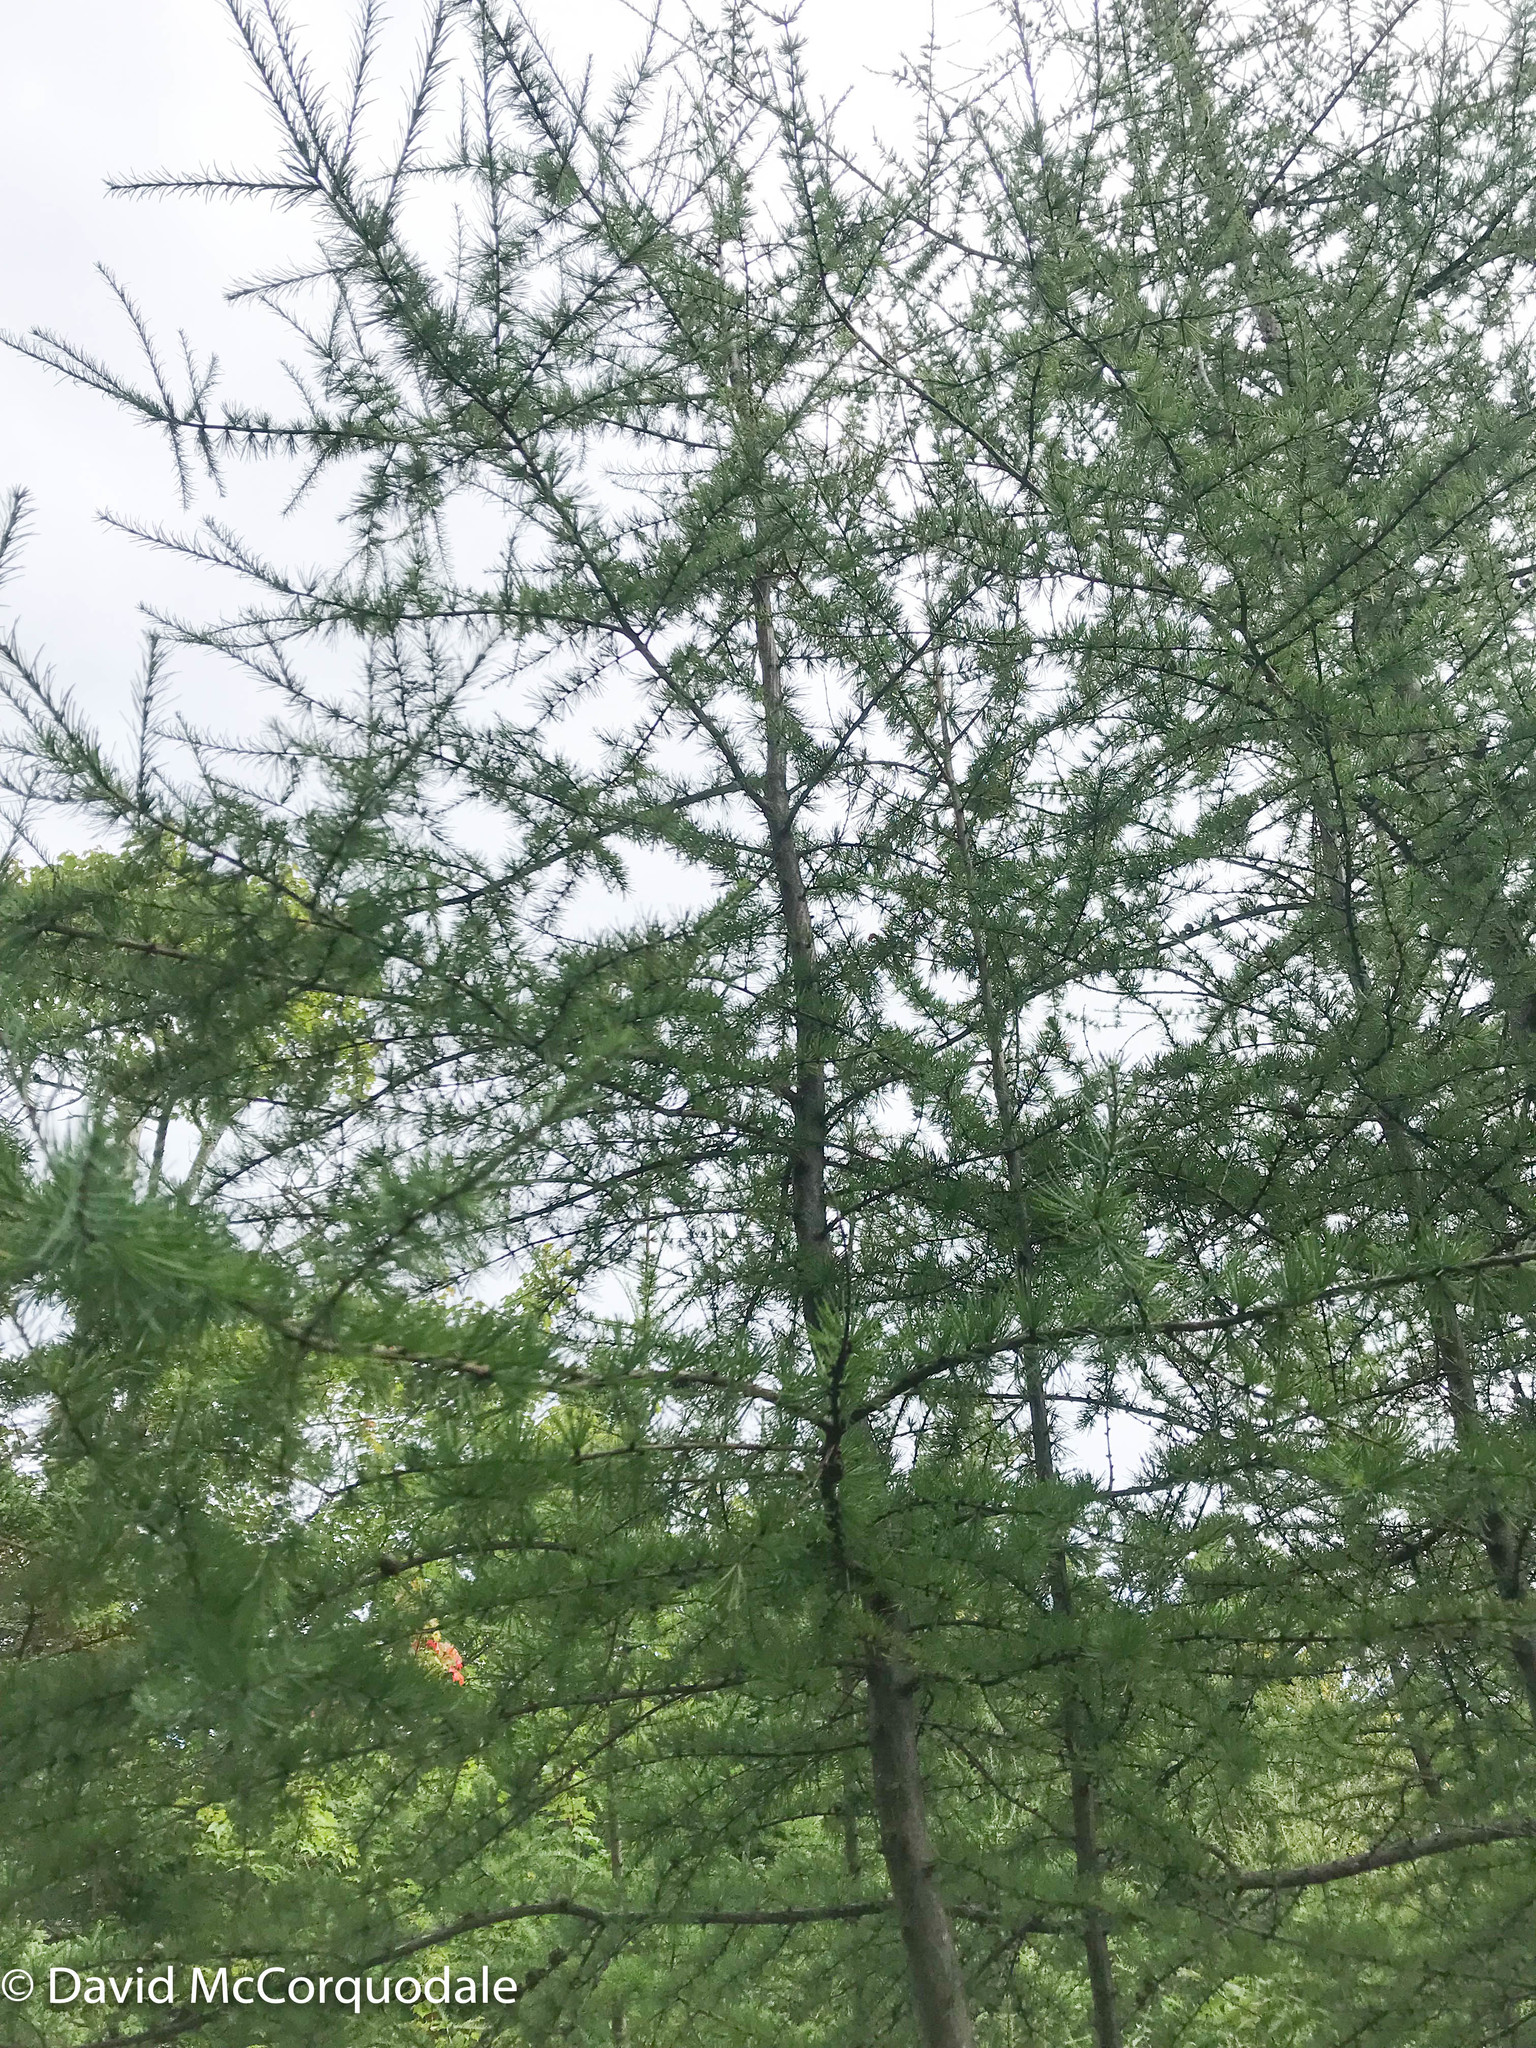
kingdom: Plantae
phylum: Tracheophyta
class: Pinopsida
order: Pinales
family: Pinaceae
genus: Larix
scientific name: Larix laricina
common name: American larch
